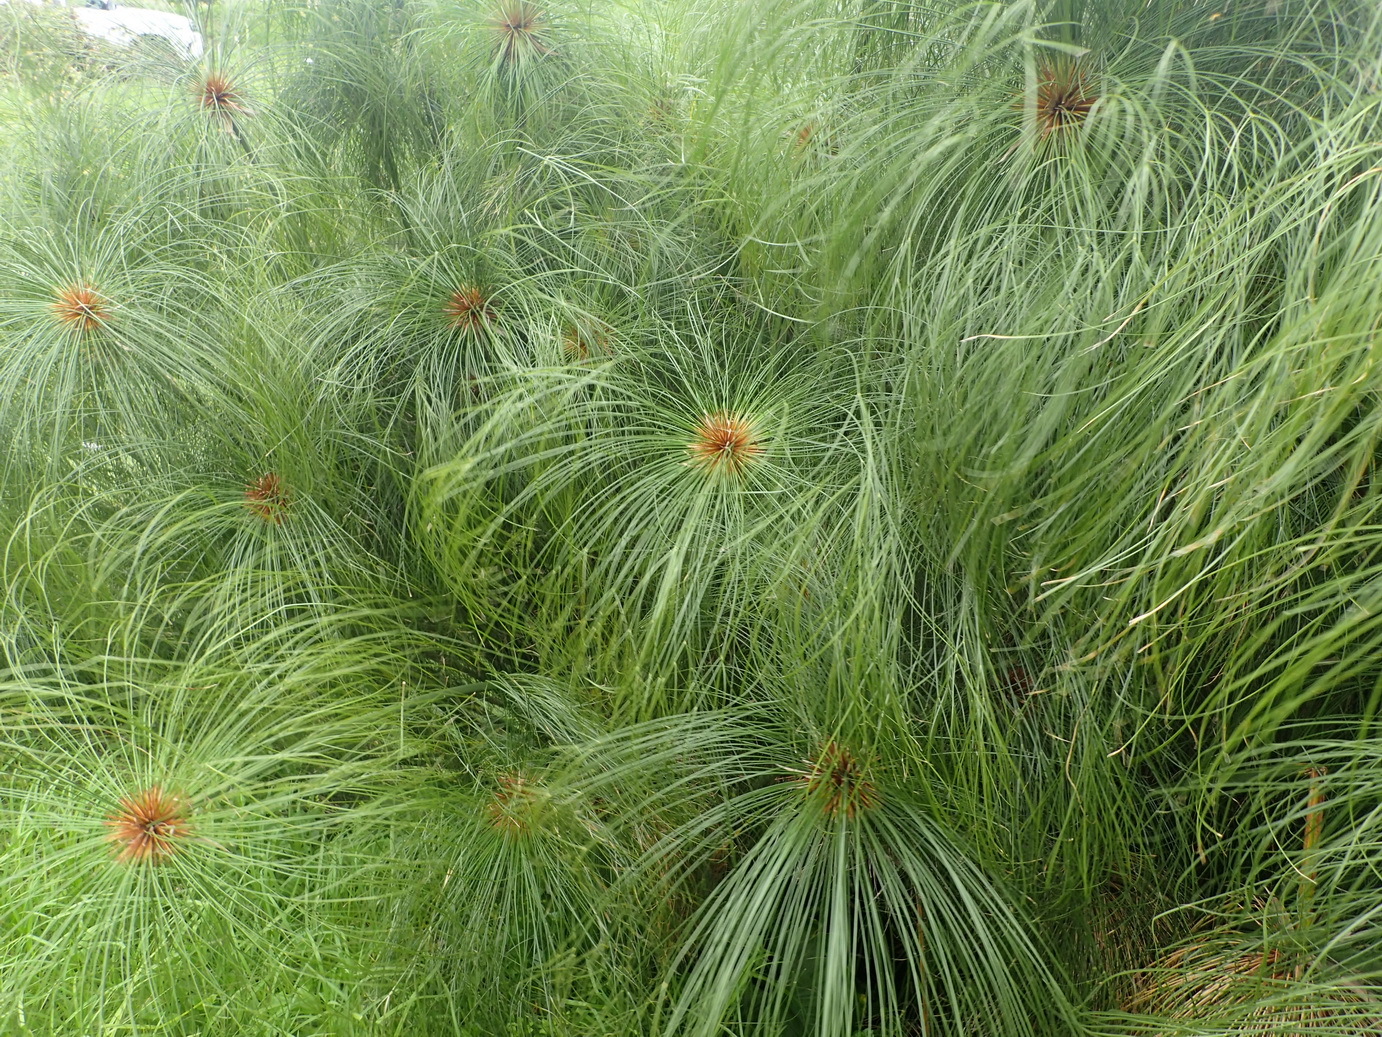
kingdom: Plantae
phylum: Tracheophyta
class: Liliopsida
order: Poales
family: Cyperaceae
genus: Cyperus
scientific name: Cyperus papyrus
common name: Papyrus
